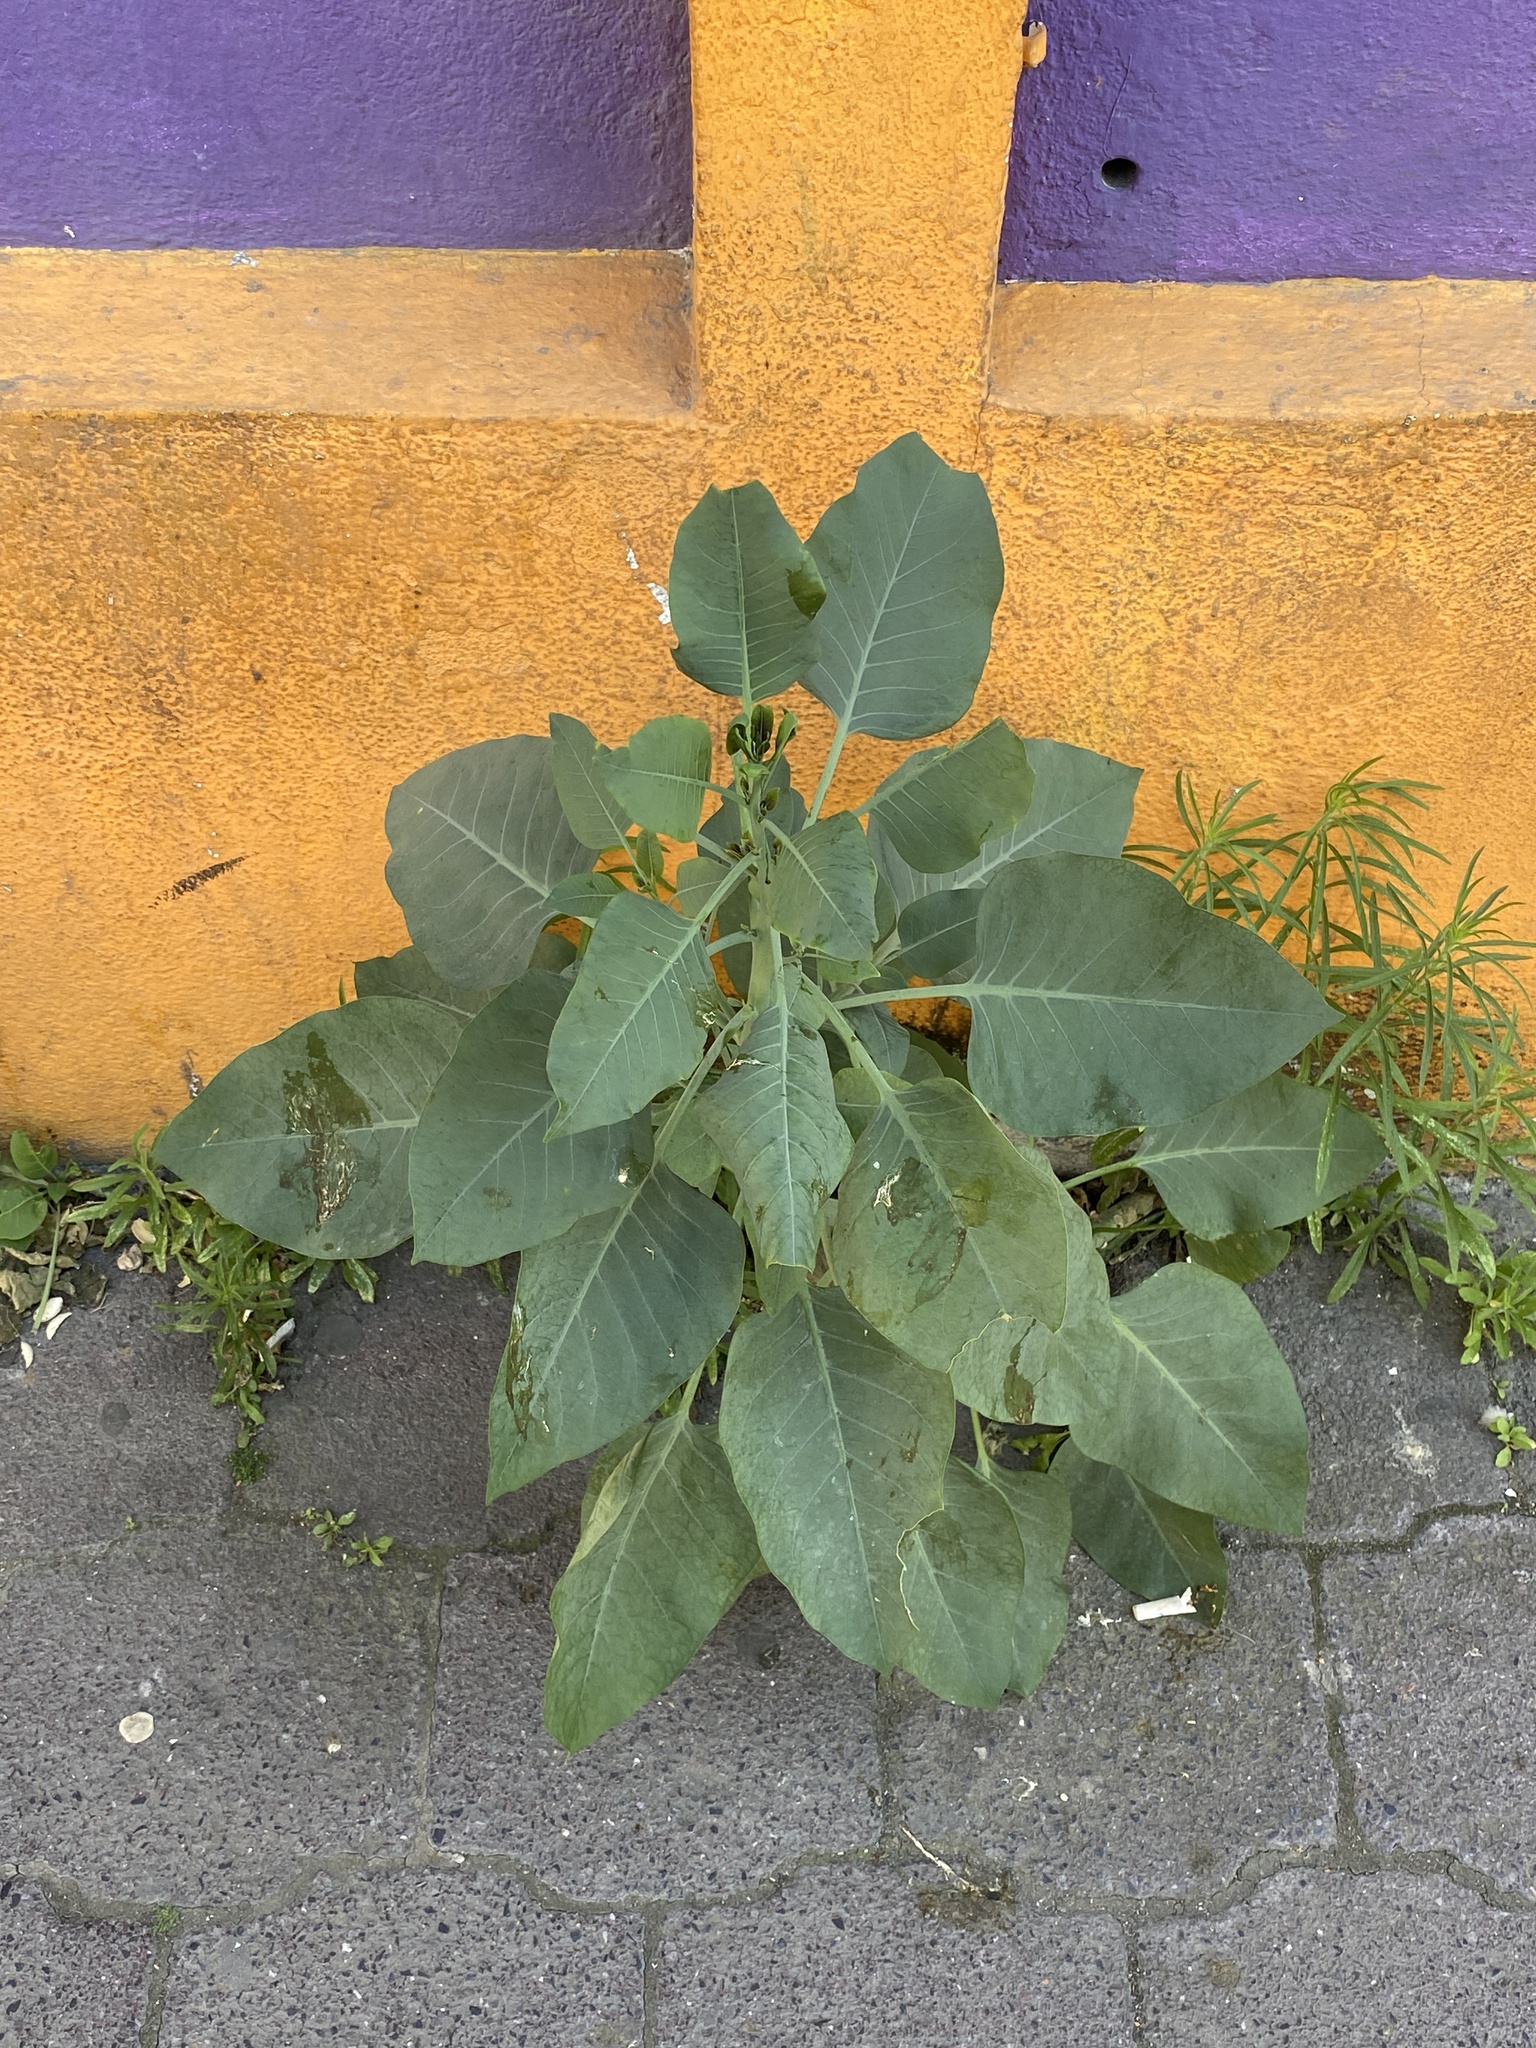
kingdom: Plantae
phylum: Tracheophyta
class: Magnoliopsida
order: Solanales
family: Solanaceae
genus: Nicotiana
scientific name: Nicotiana glauca
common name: Tree tobacco
